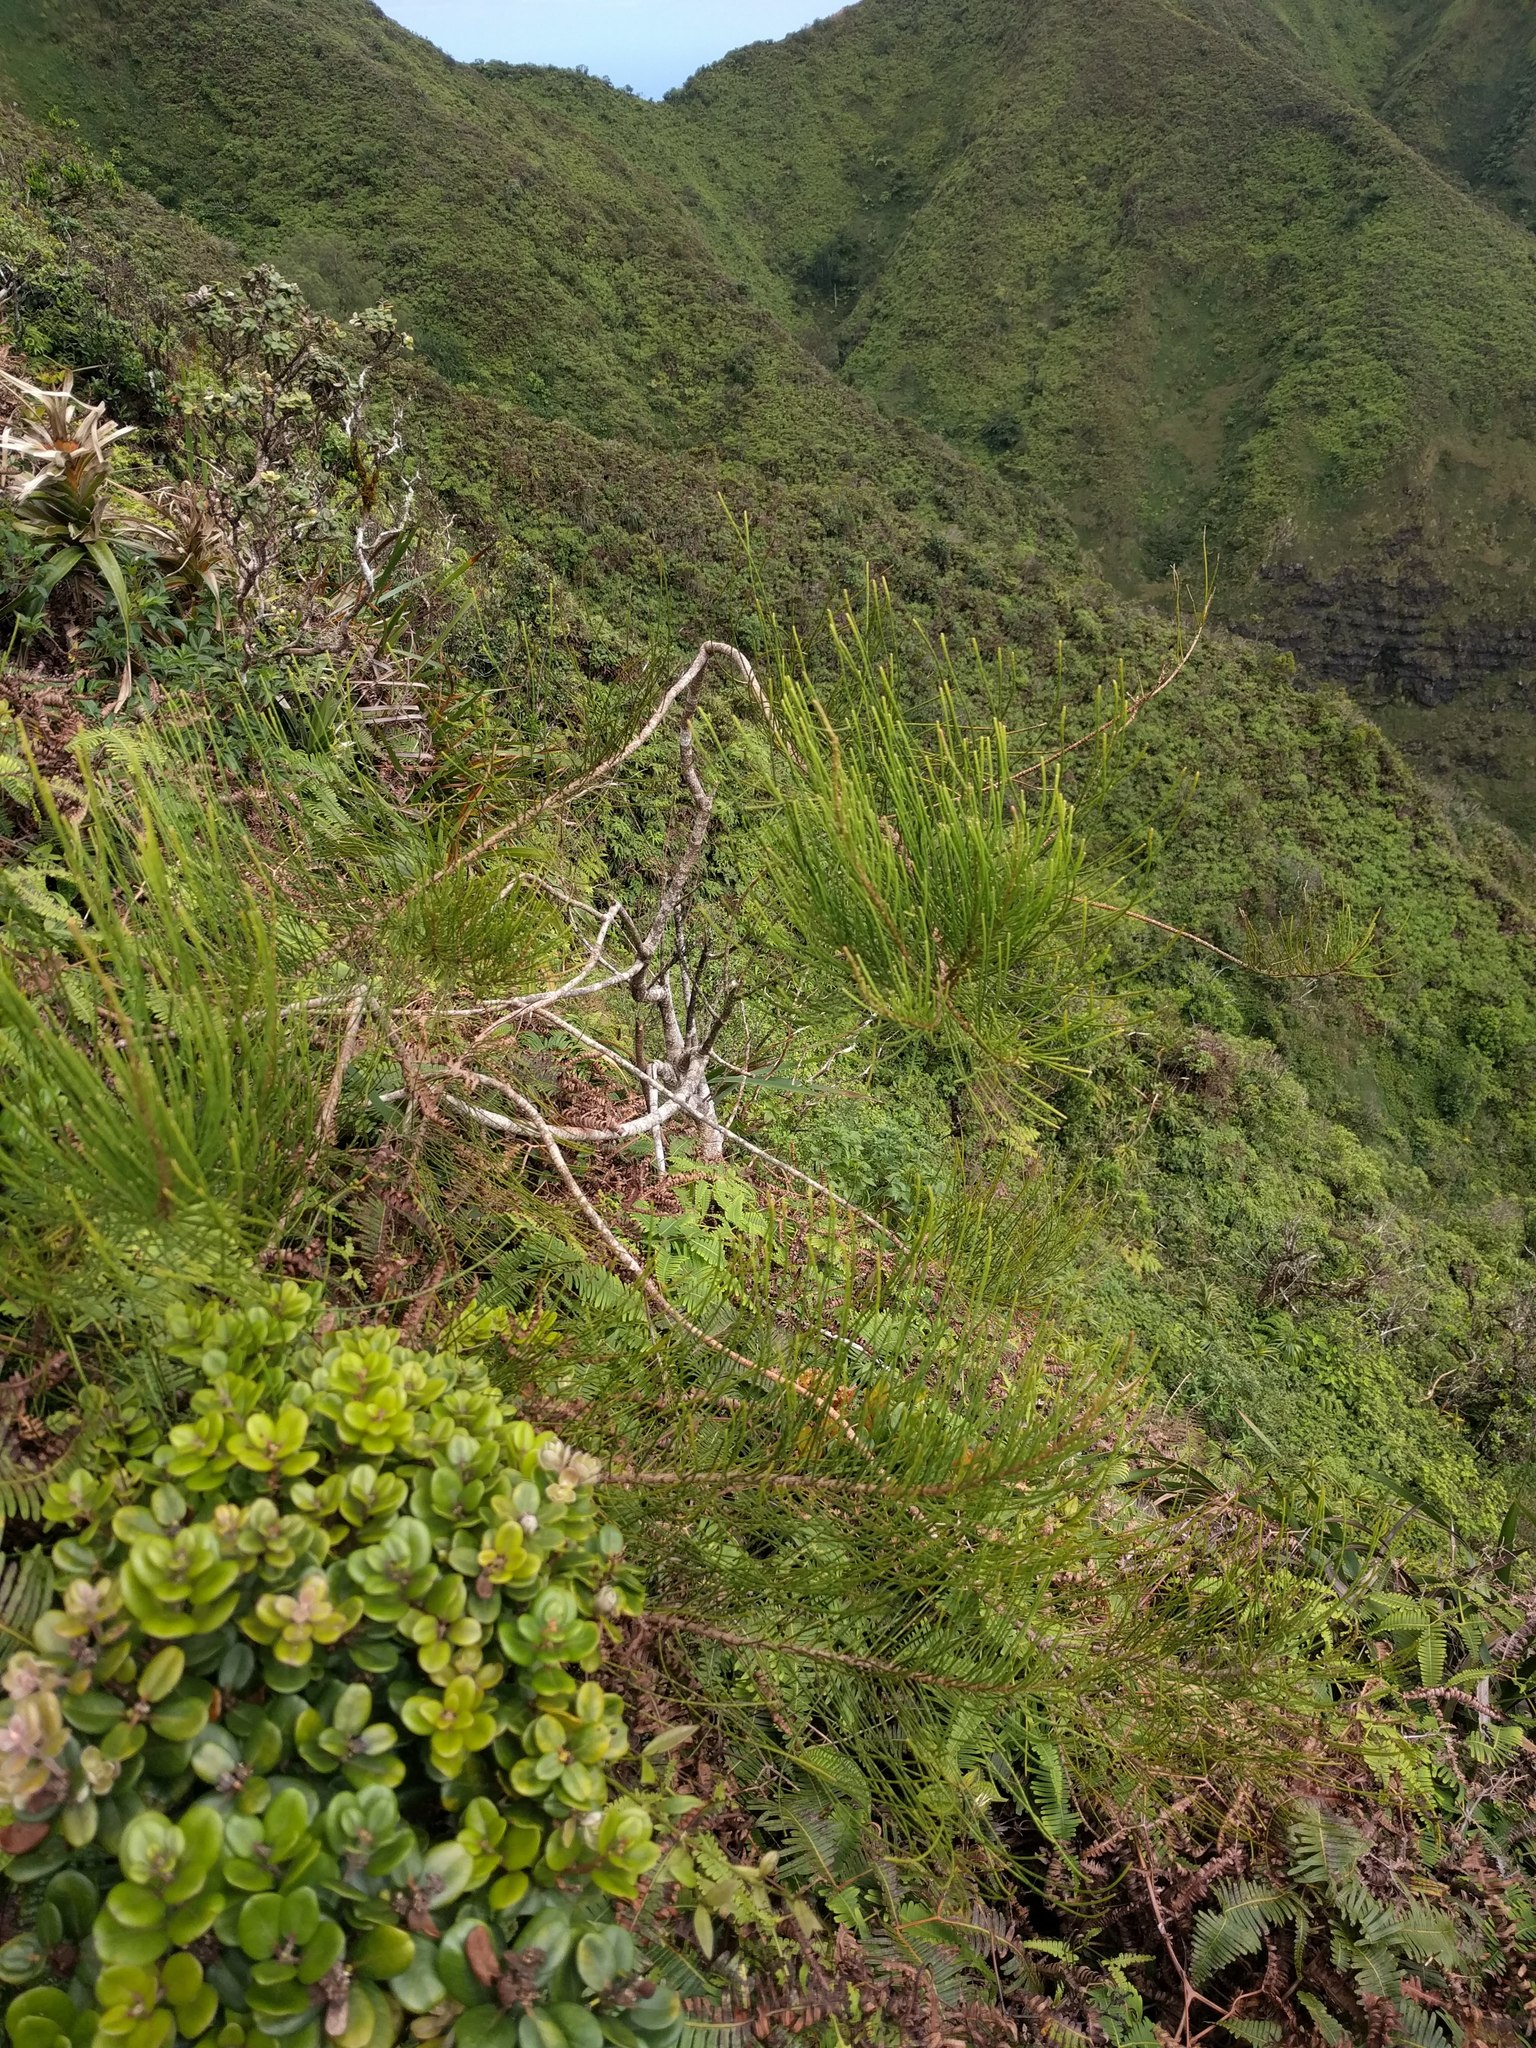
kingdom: Plantae
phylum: Tracheophyta
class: Magnoliopsida
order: Fagales
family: Casuarinaceae
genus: Casuarina
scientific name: Casuarina equisetifolia
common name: Beach sheoak
